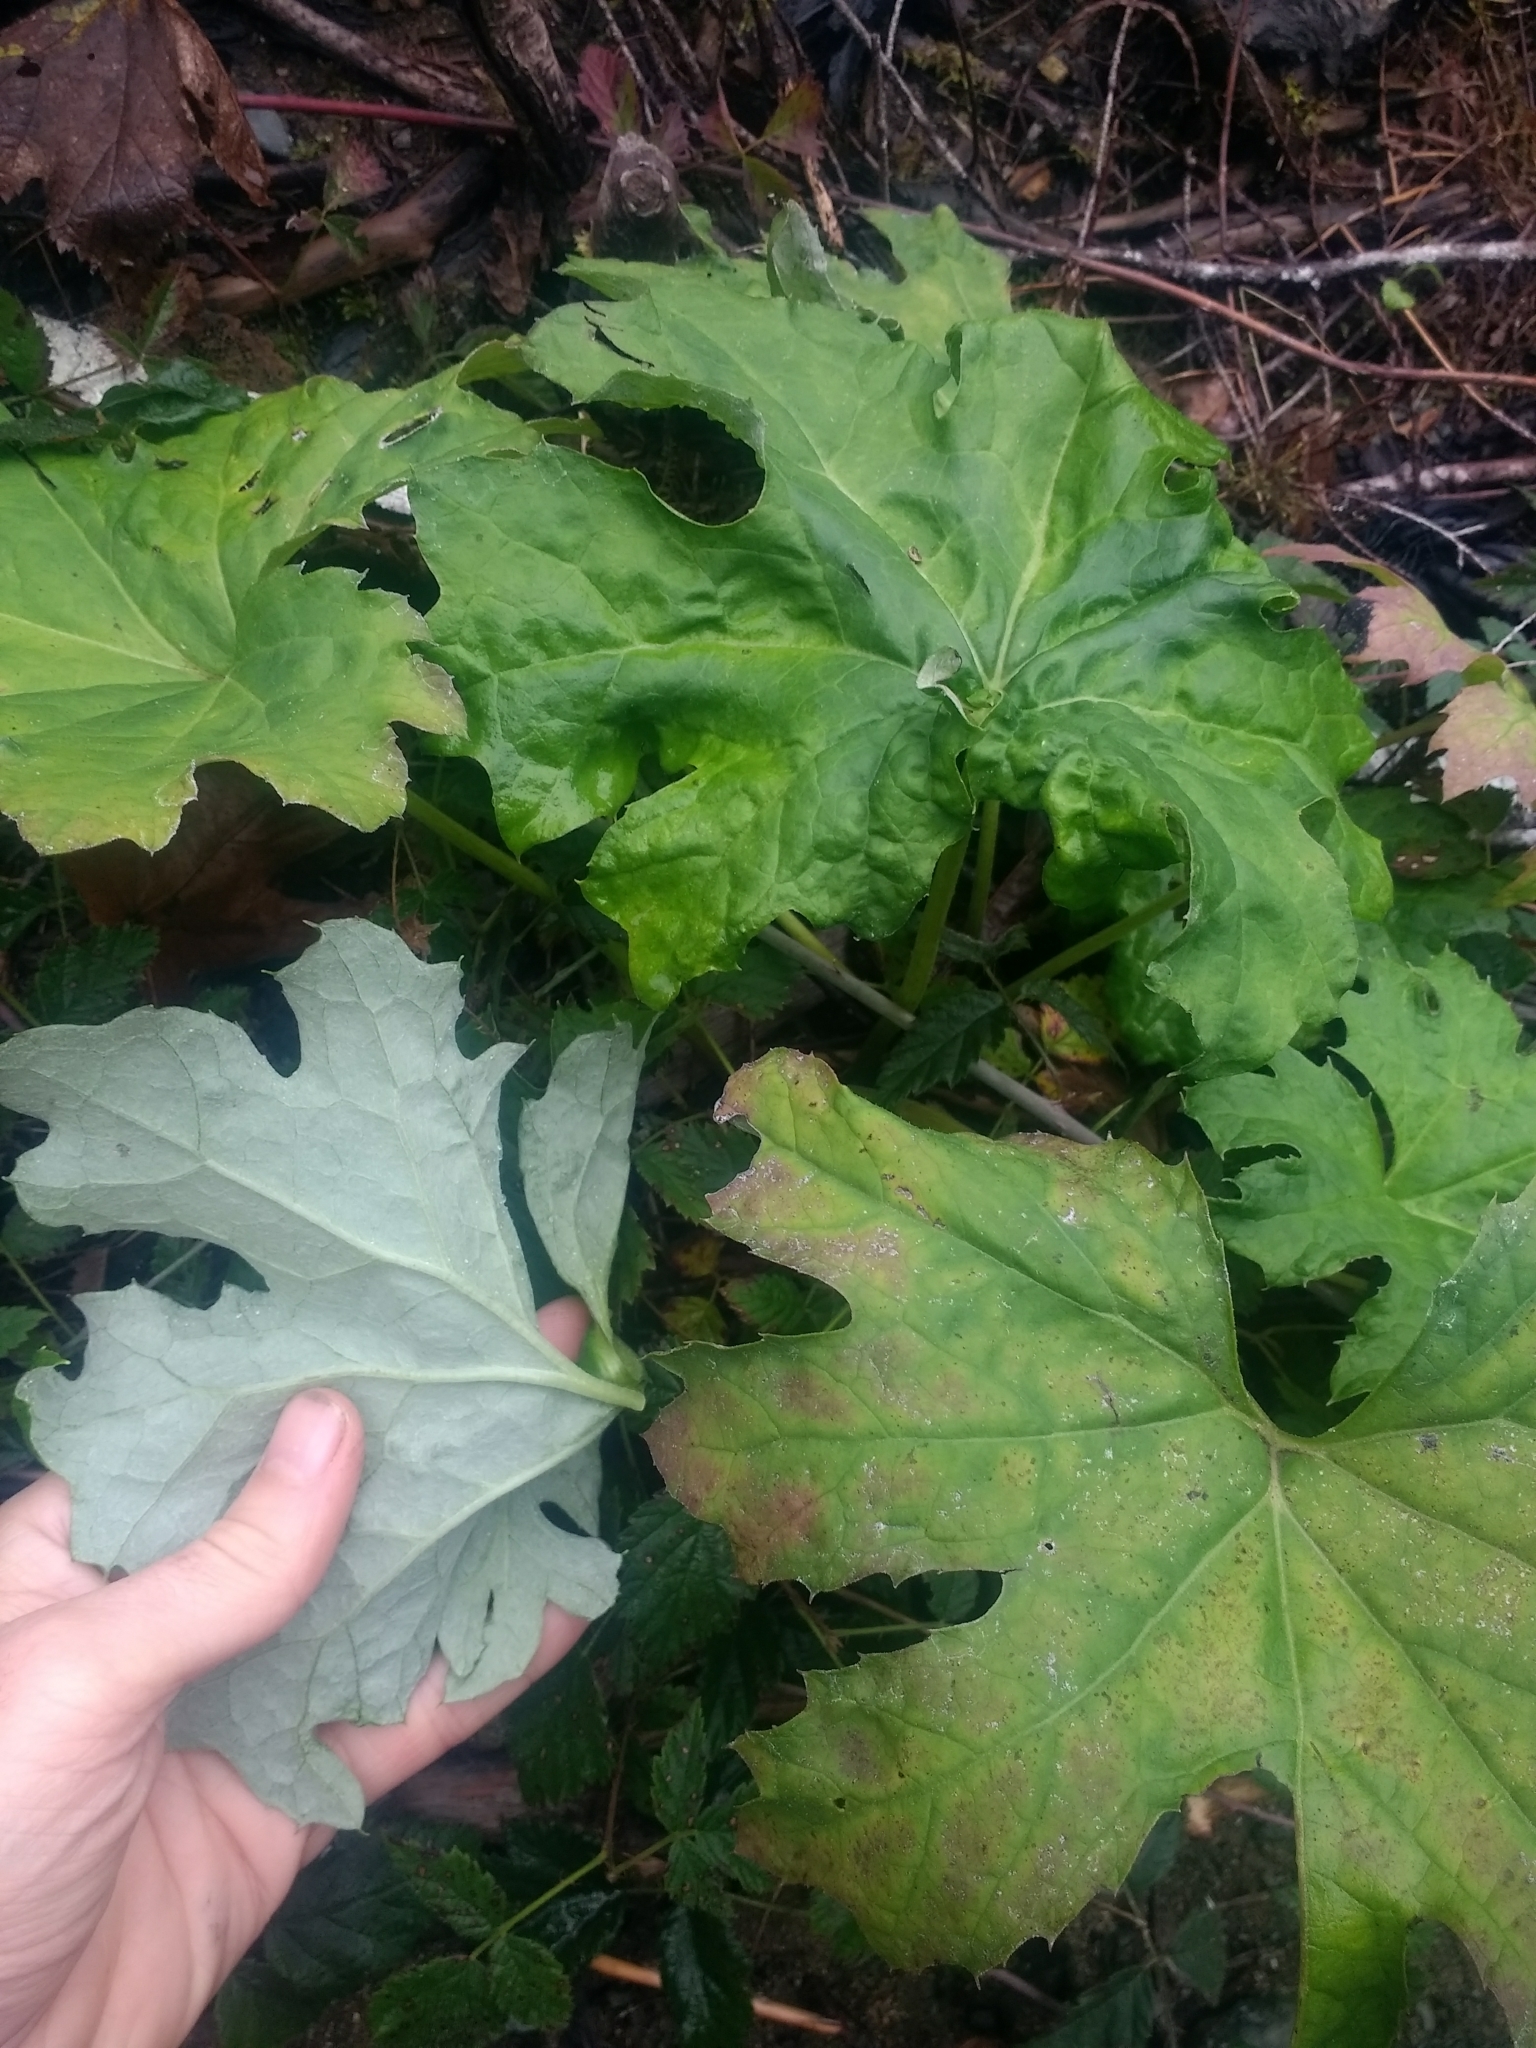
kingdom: Plantae
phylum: Tracheophyta
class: Magnoliopsida
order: Asterales
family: Asteraceae
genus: Petasites
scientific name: Petasites frigidus
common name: Arctic butterbur
